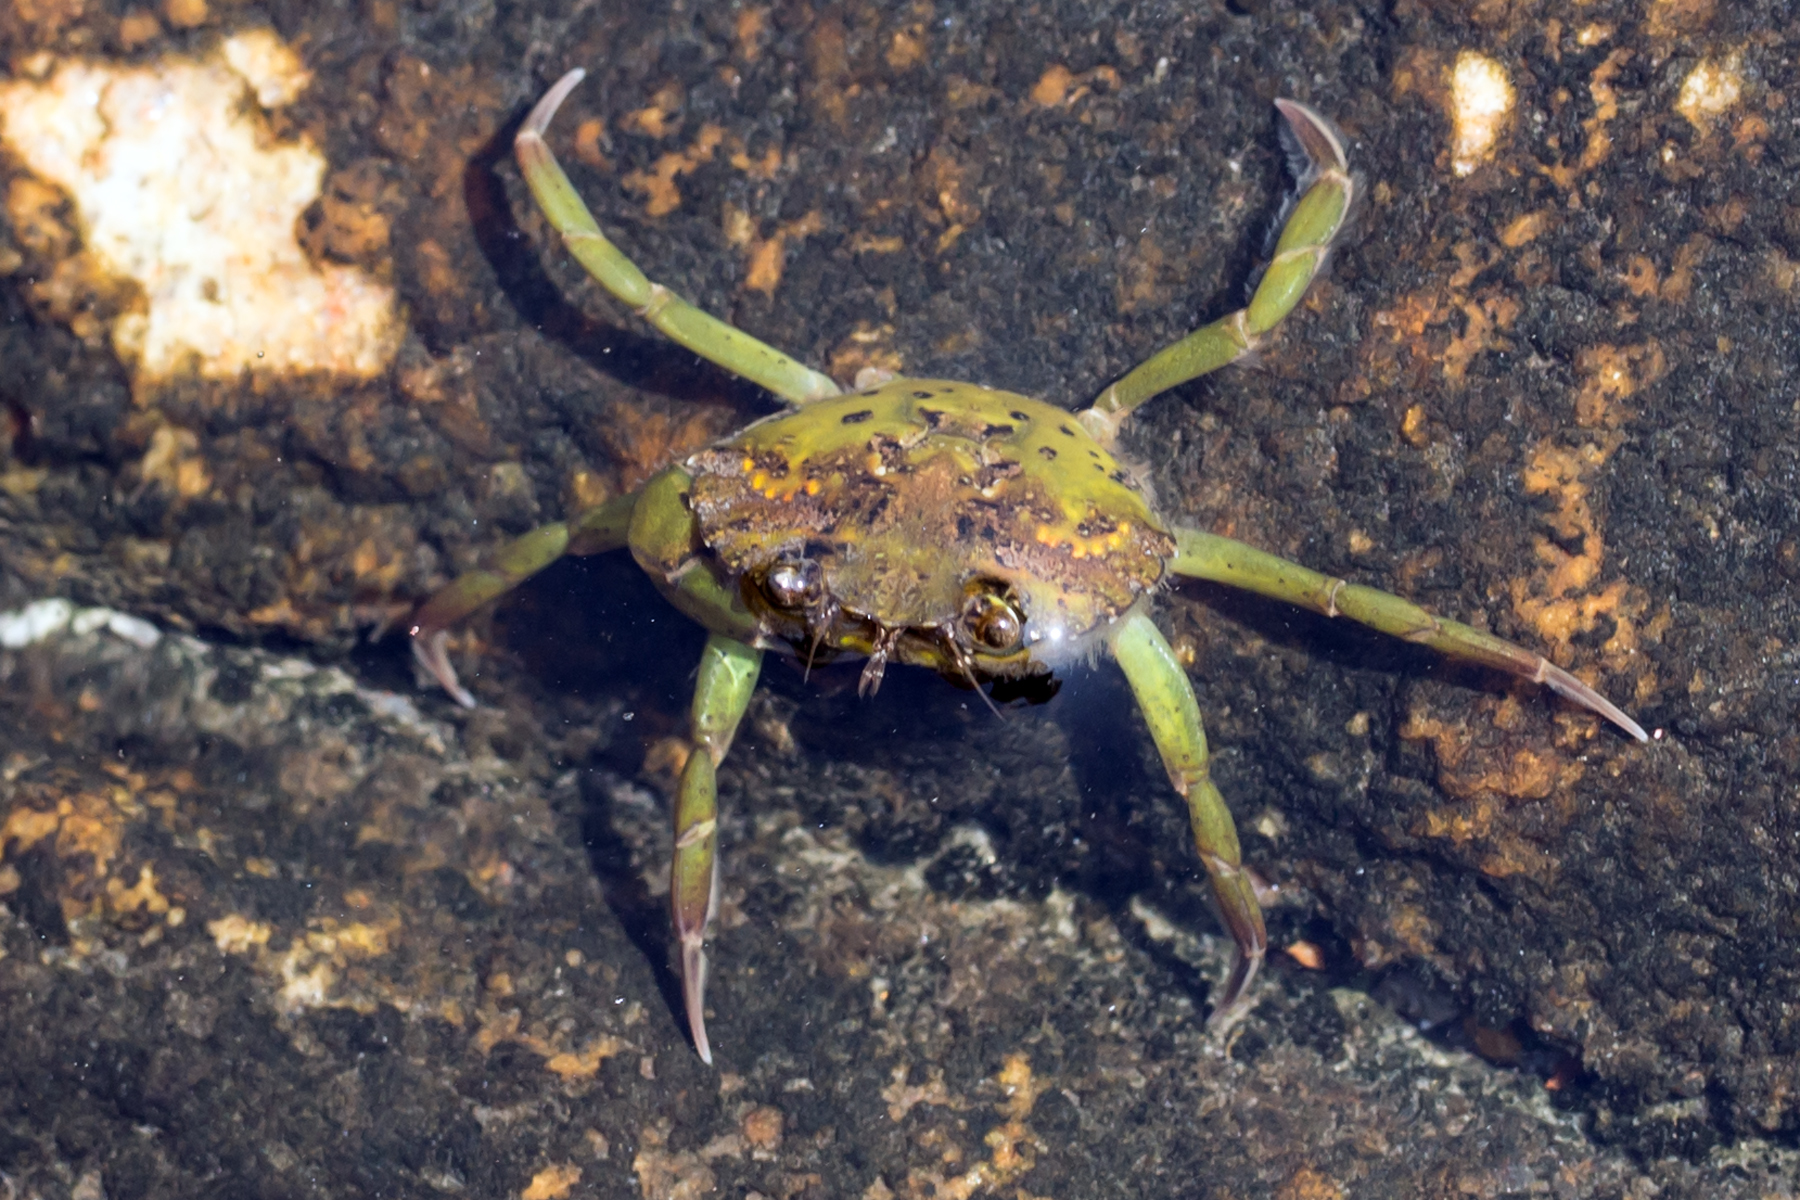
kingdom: Animalia
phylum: Arthropoda
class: Malacostraca
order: Decapoda
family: Carcinidae
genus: Carcinus
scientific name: Carcinus maenas
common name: European green crab
